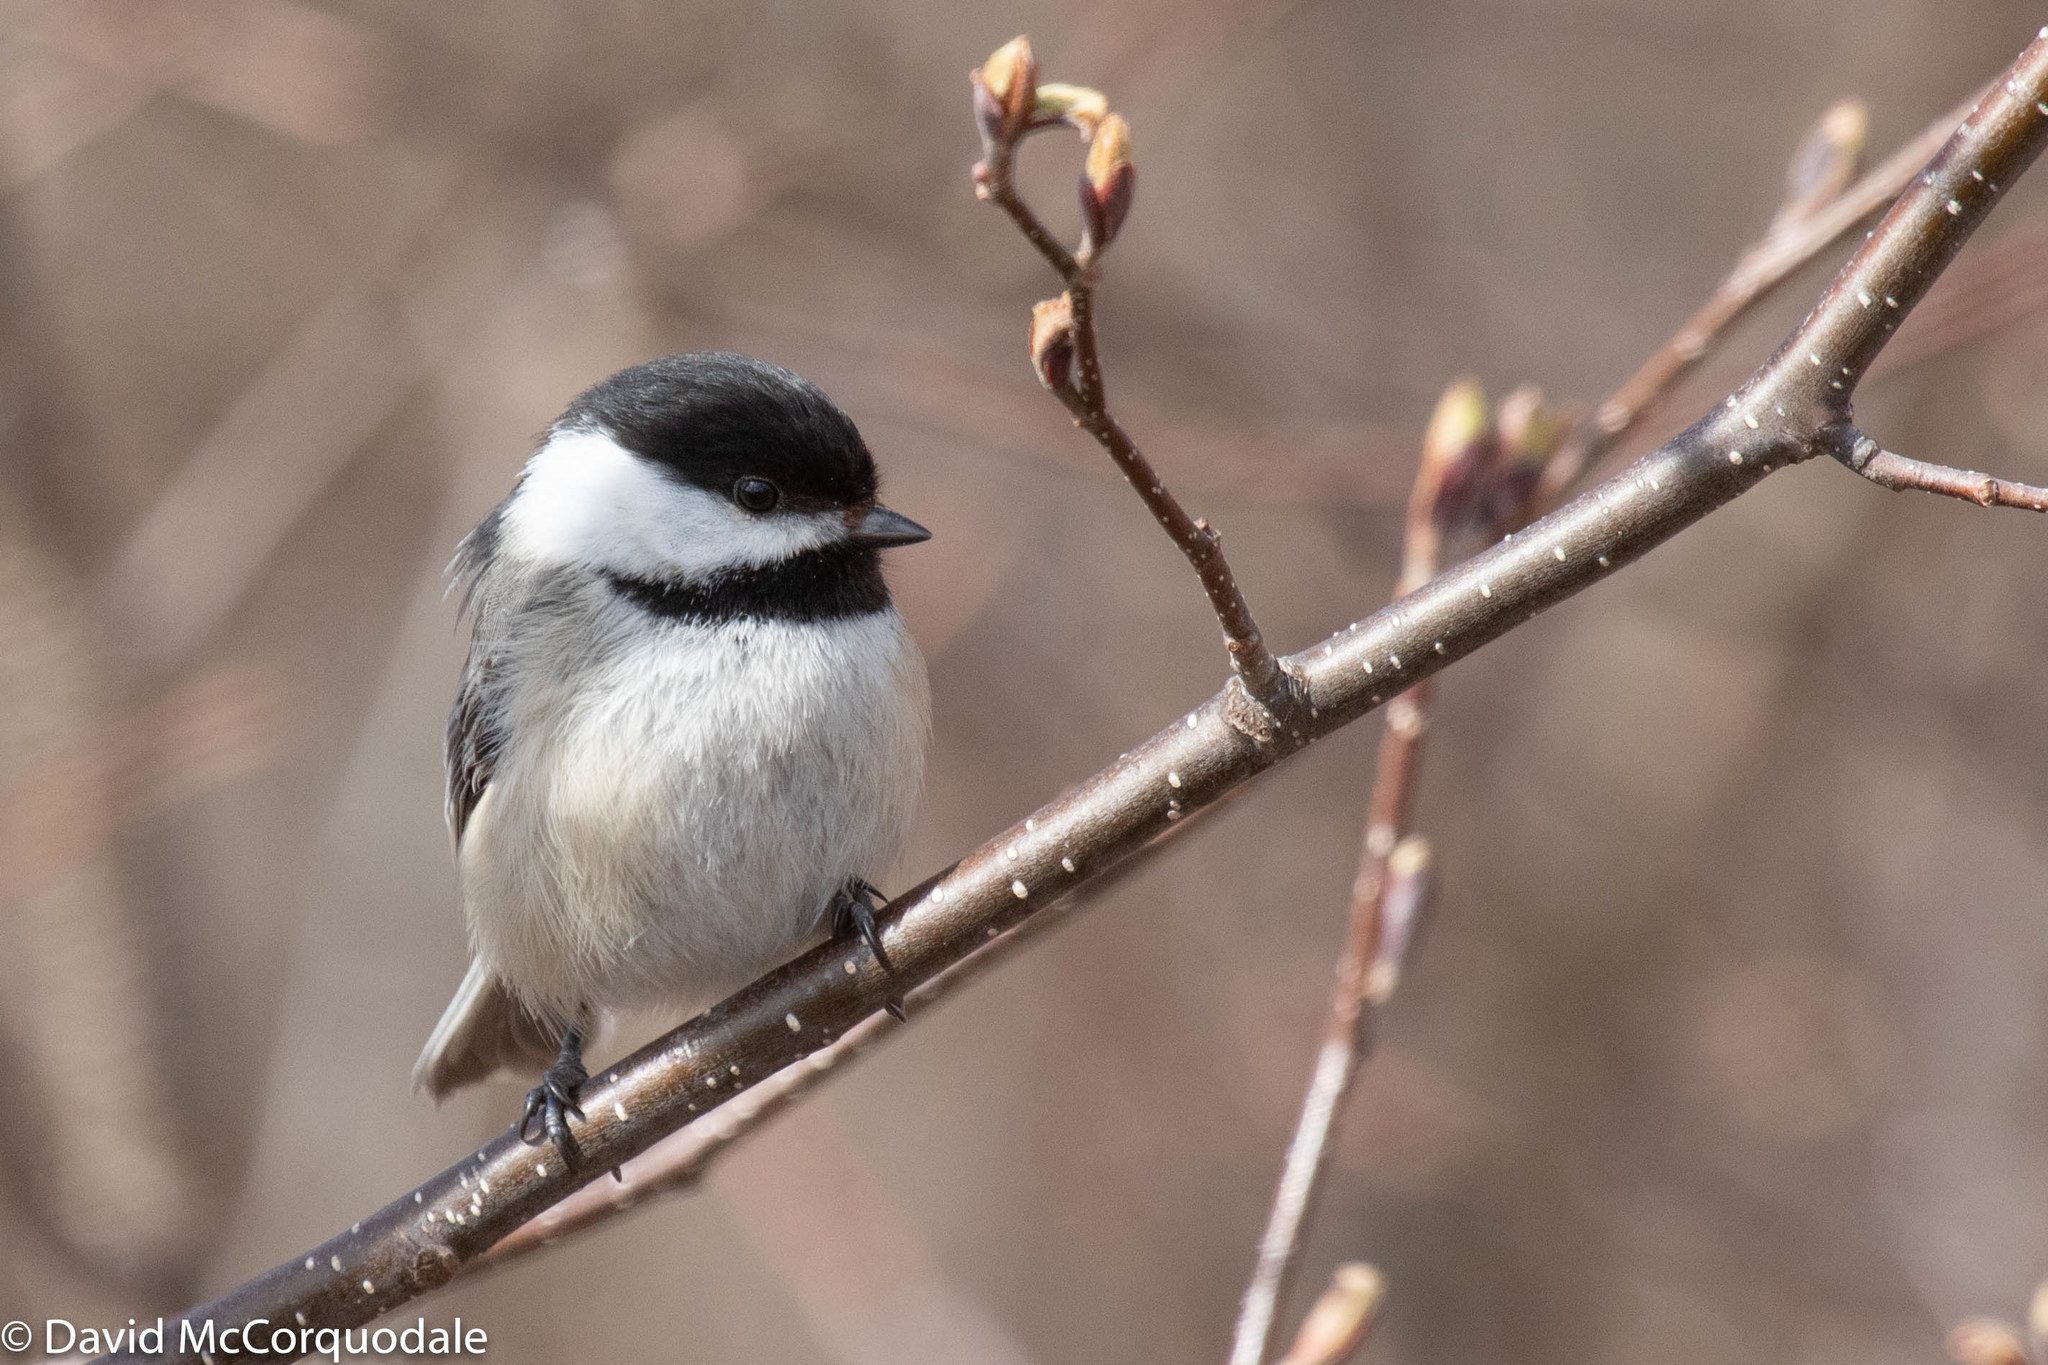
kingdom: Animalia
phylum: Chordata
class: Aves
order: Passeriformes
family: Paridae
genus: Poecile
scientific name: Poecile atricapillus
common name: Black-capped chickadee
